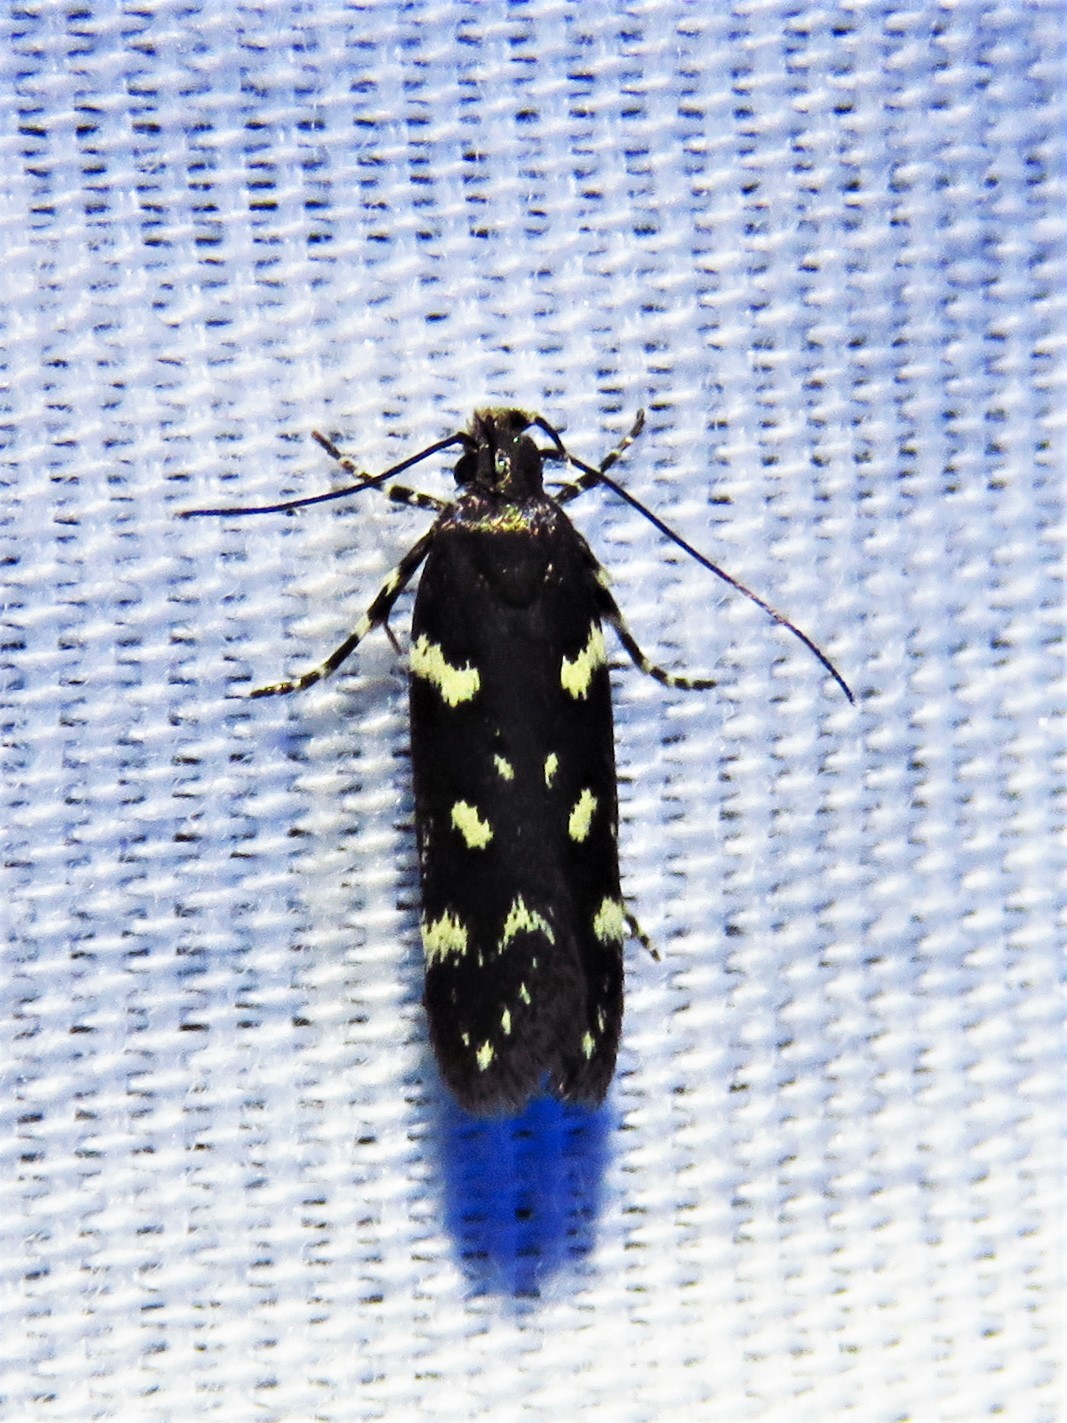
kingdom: Animalia
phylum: Arthropoda
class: Insecta
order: Lepidoptera
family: Gelechiidae
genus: Aroga
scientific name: Aroga compositella
